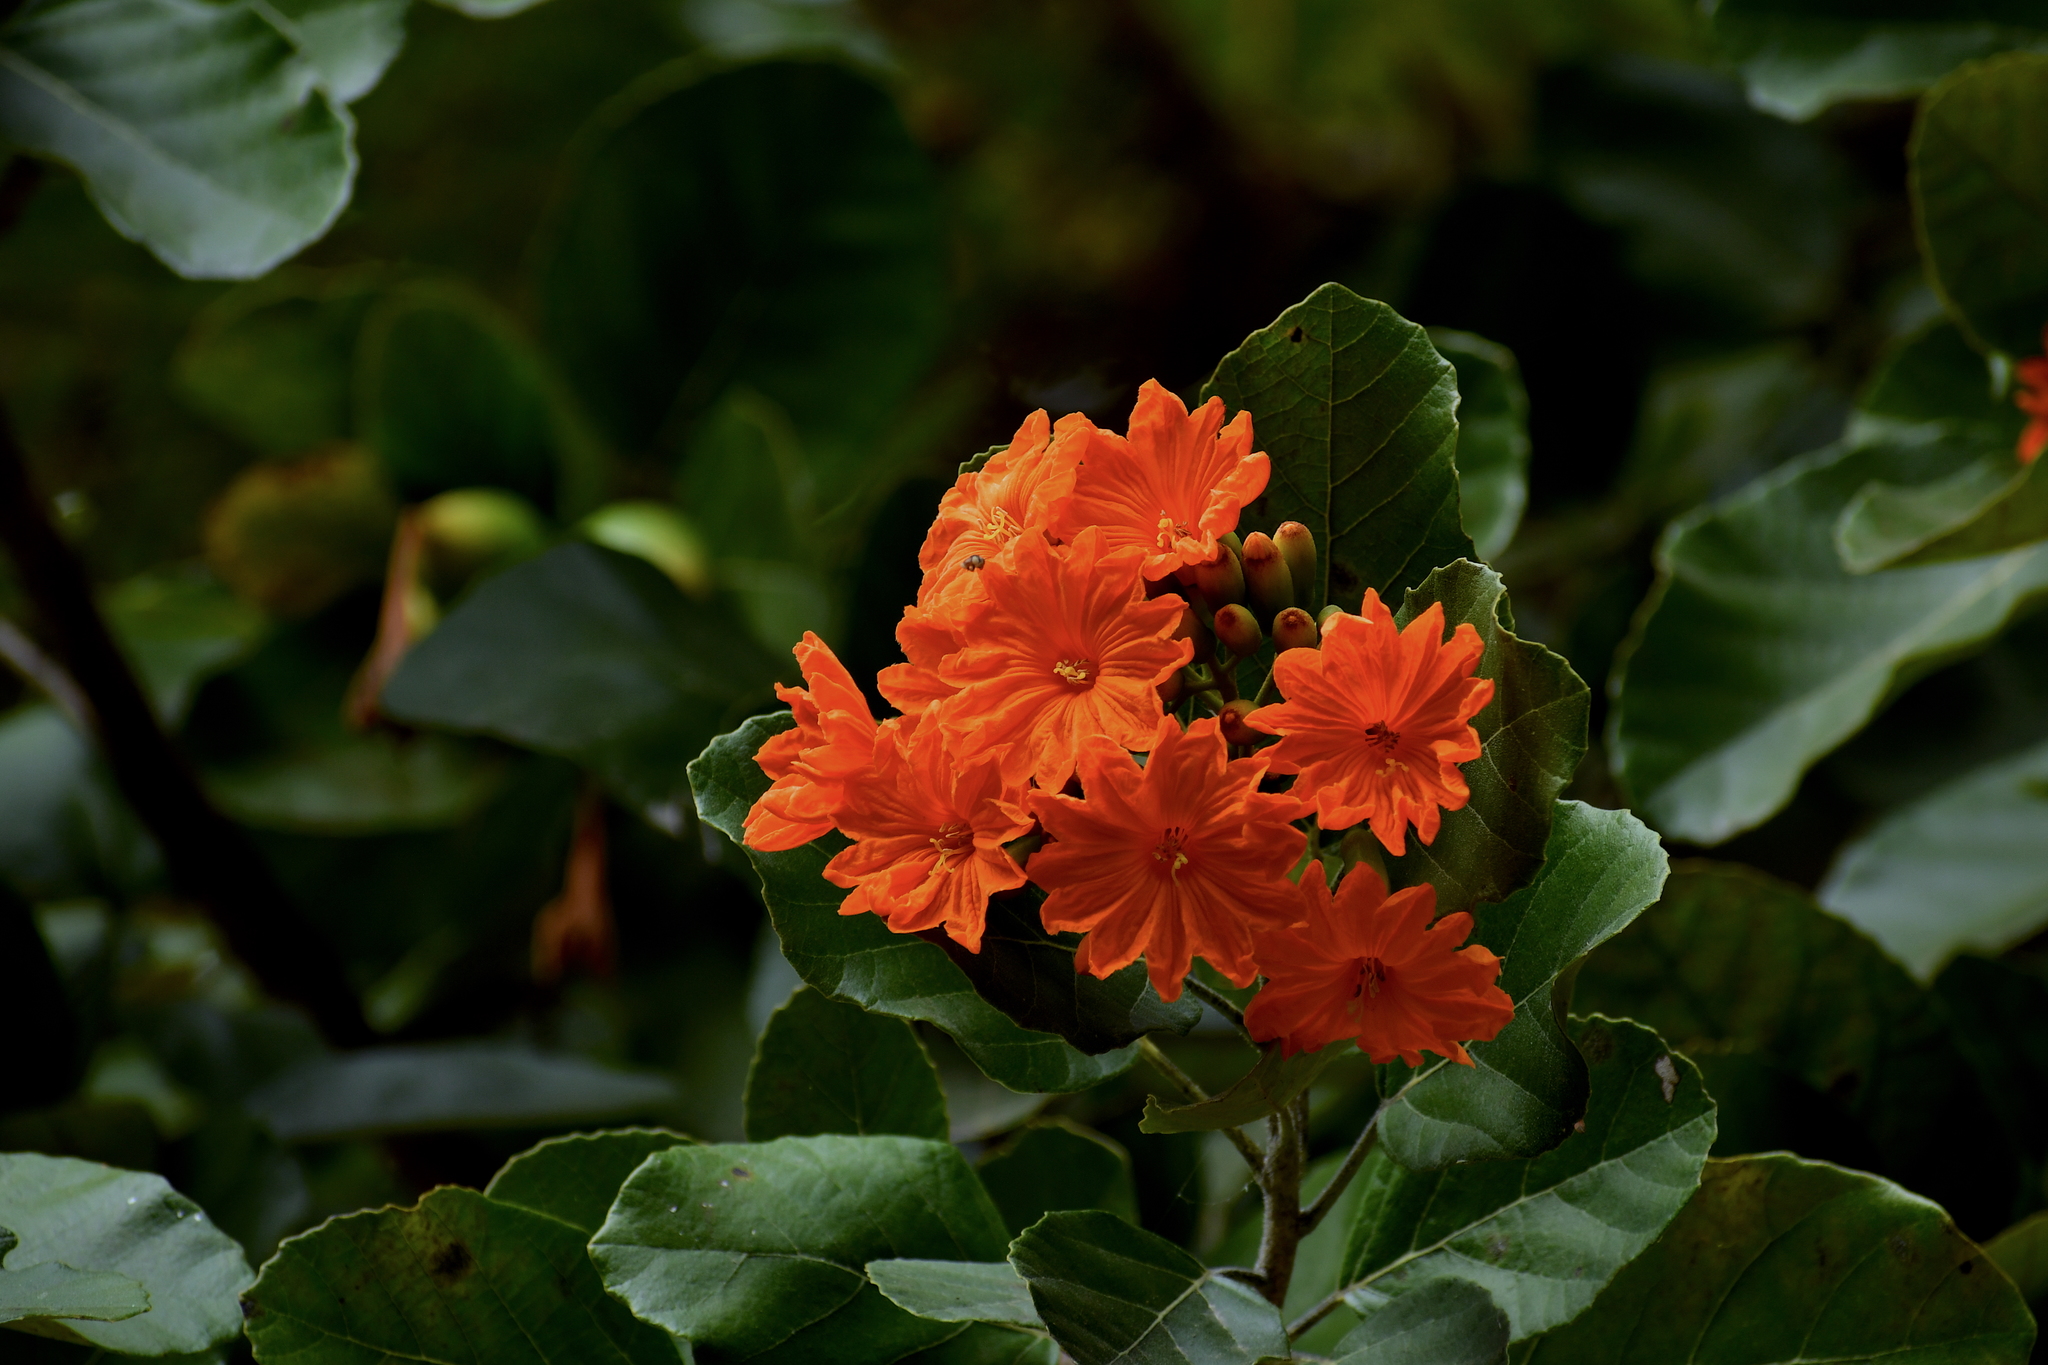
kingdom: Plantae
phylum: Tracheophyta
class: Magnoliopsida
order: Boraginales
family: Cordiaceae
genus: Cordia
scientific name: Cordia dodecandra
